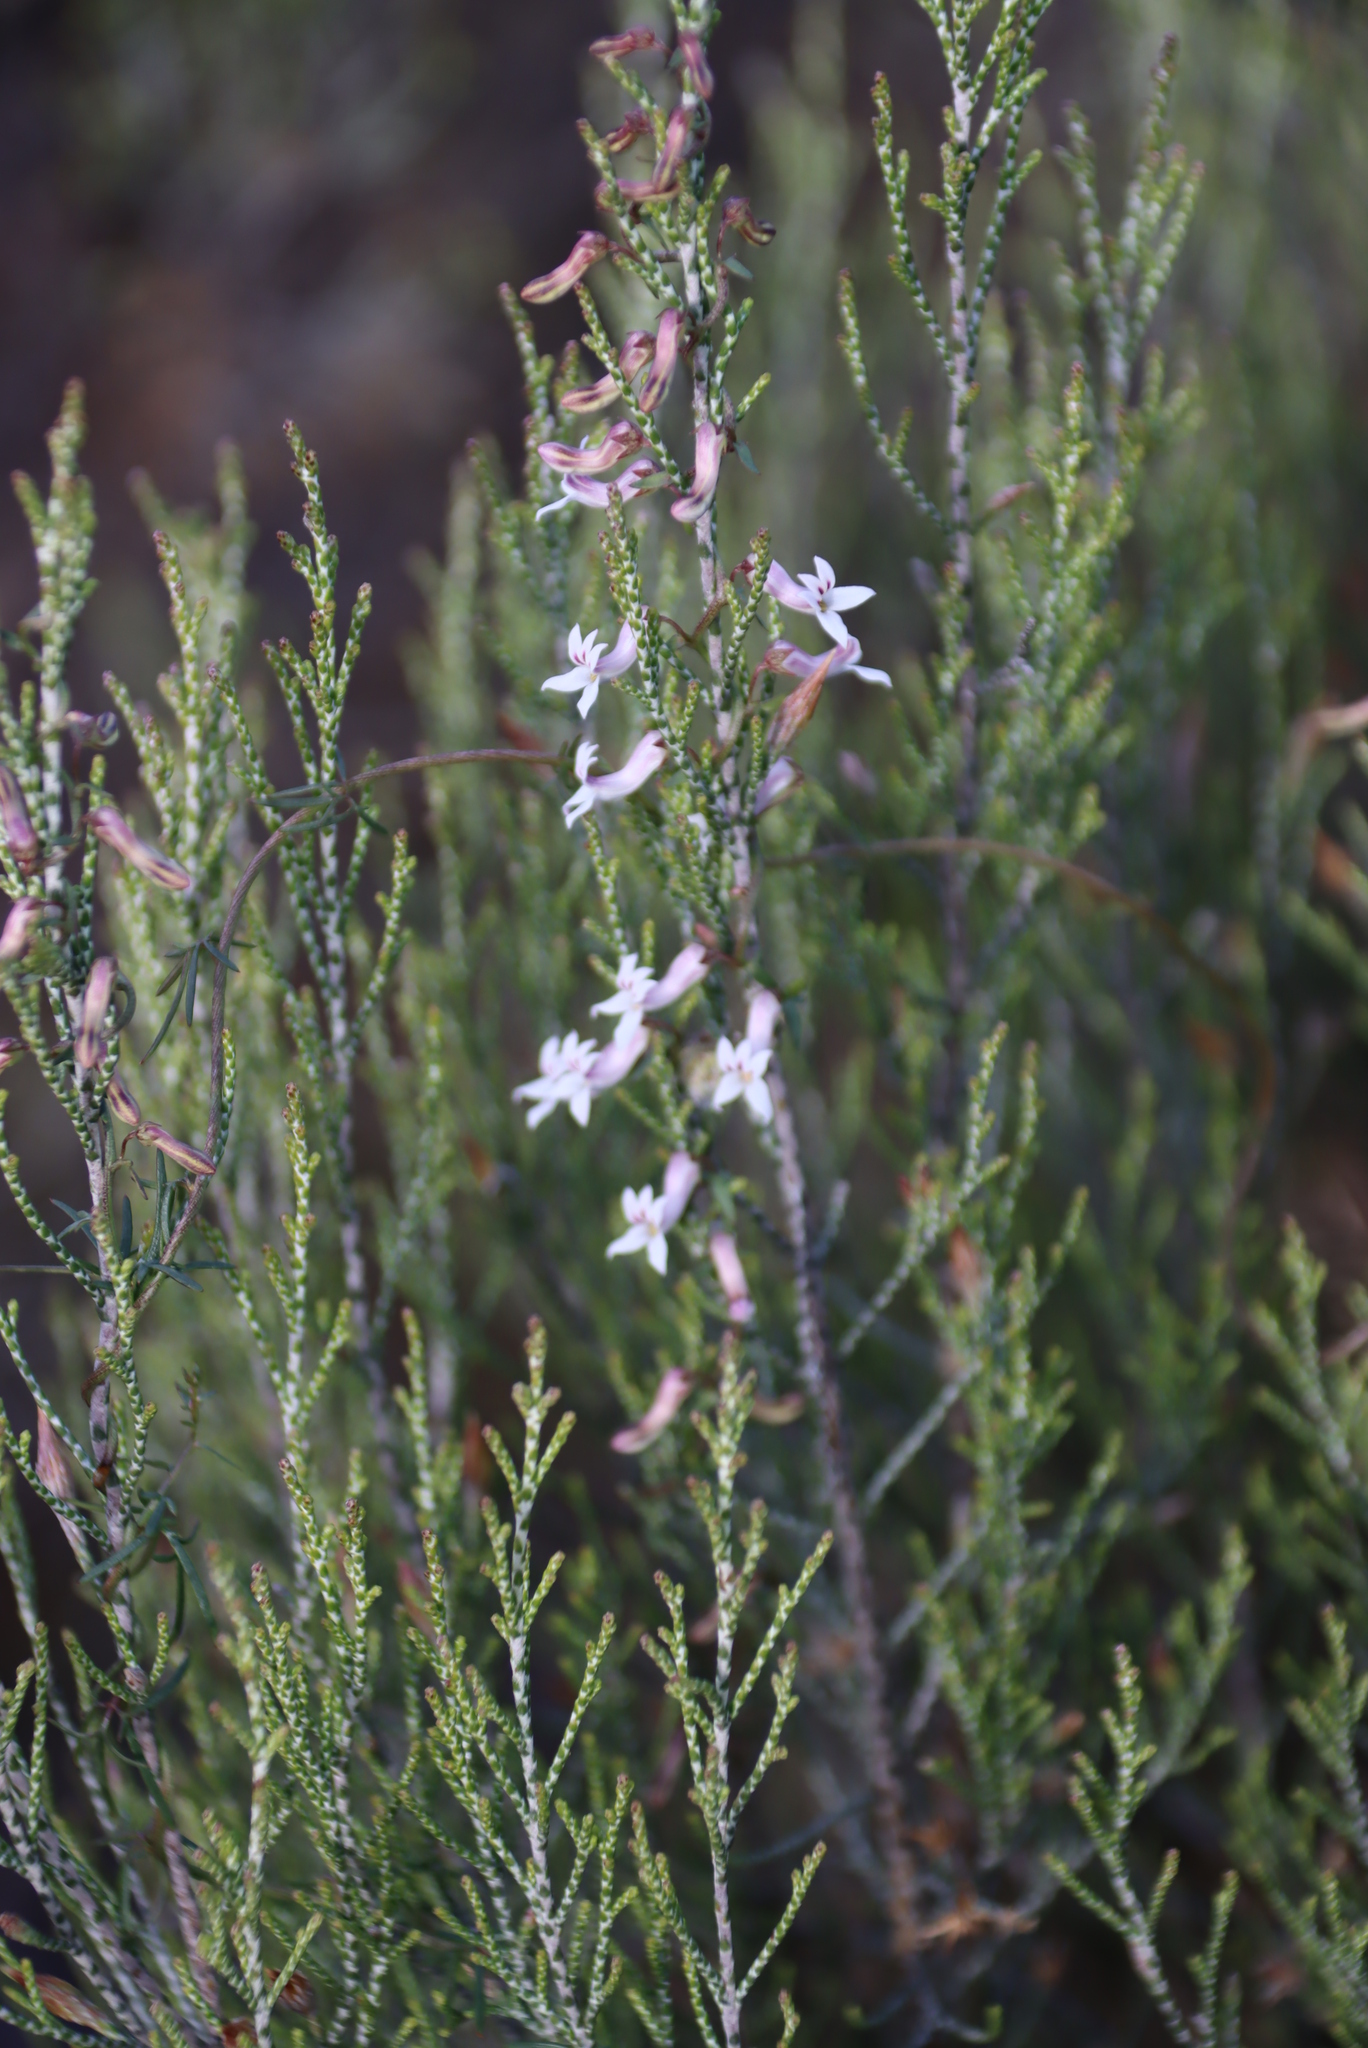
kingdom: Plantae
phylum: Tracheophyta
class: Magnoliopsida
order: Asterales
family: Campanulaceae
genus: Cyphia
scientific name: Cyphia digitata
